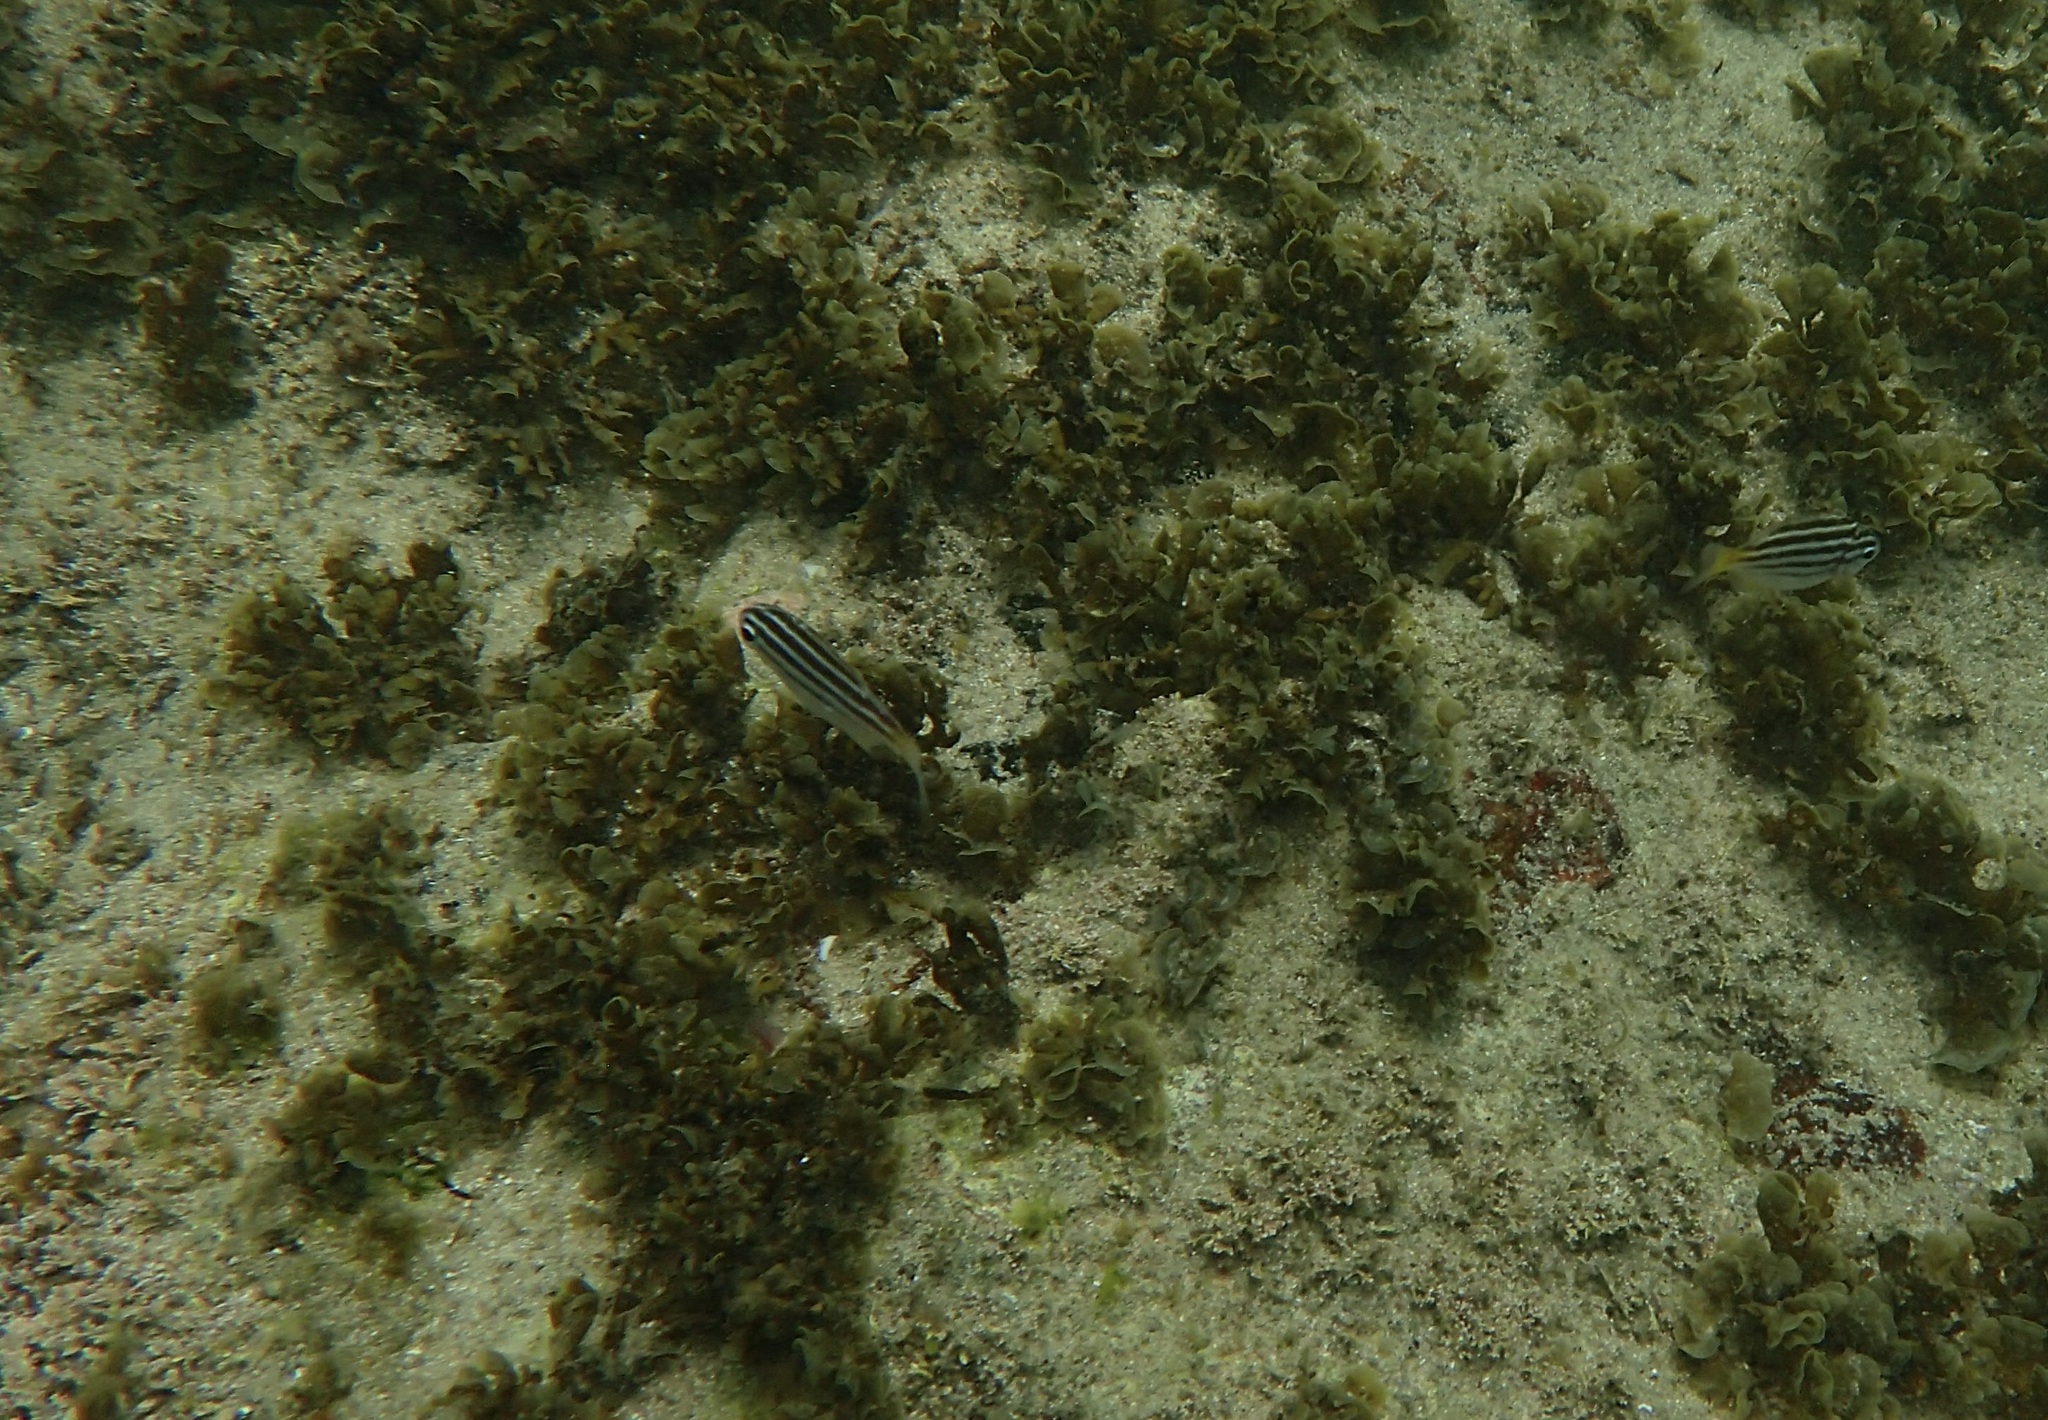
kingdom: Animalia
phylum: Chordata
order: Perciformes
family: Kyphosidae
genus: Atypichthys
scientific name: Atypichthys strigatus
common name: Australian mado
